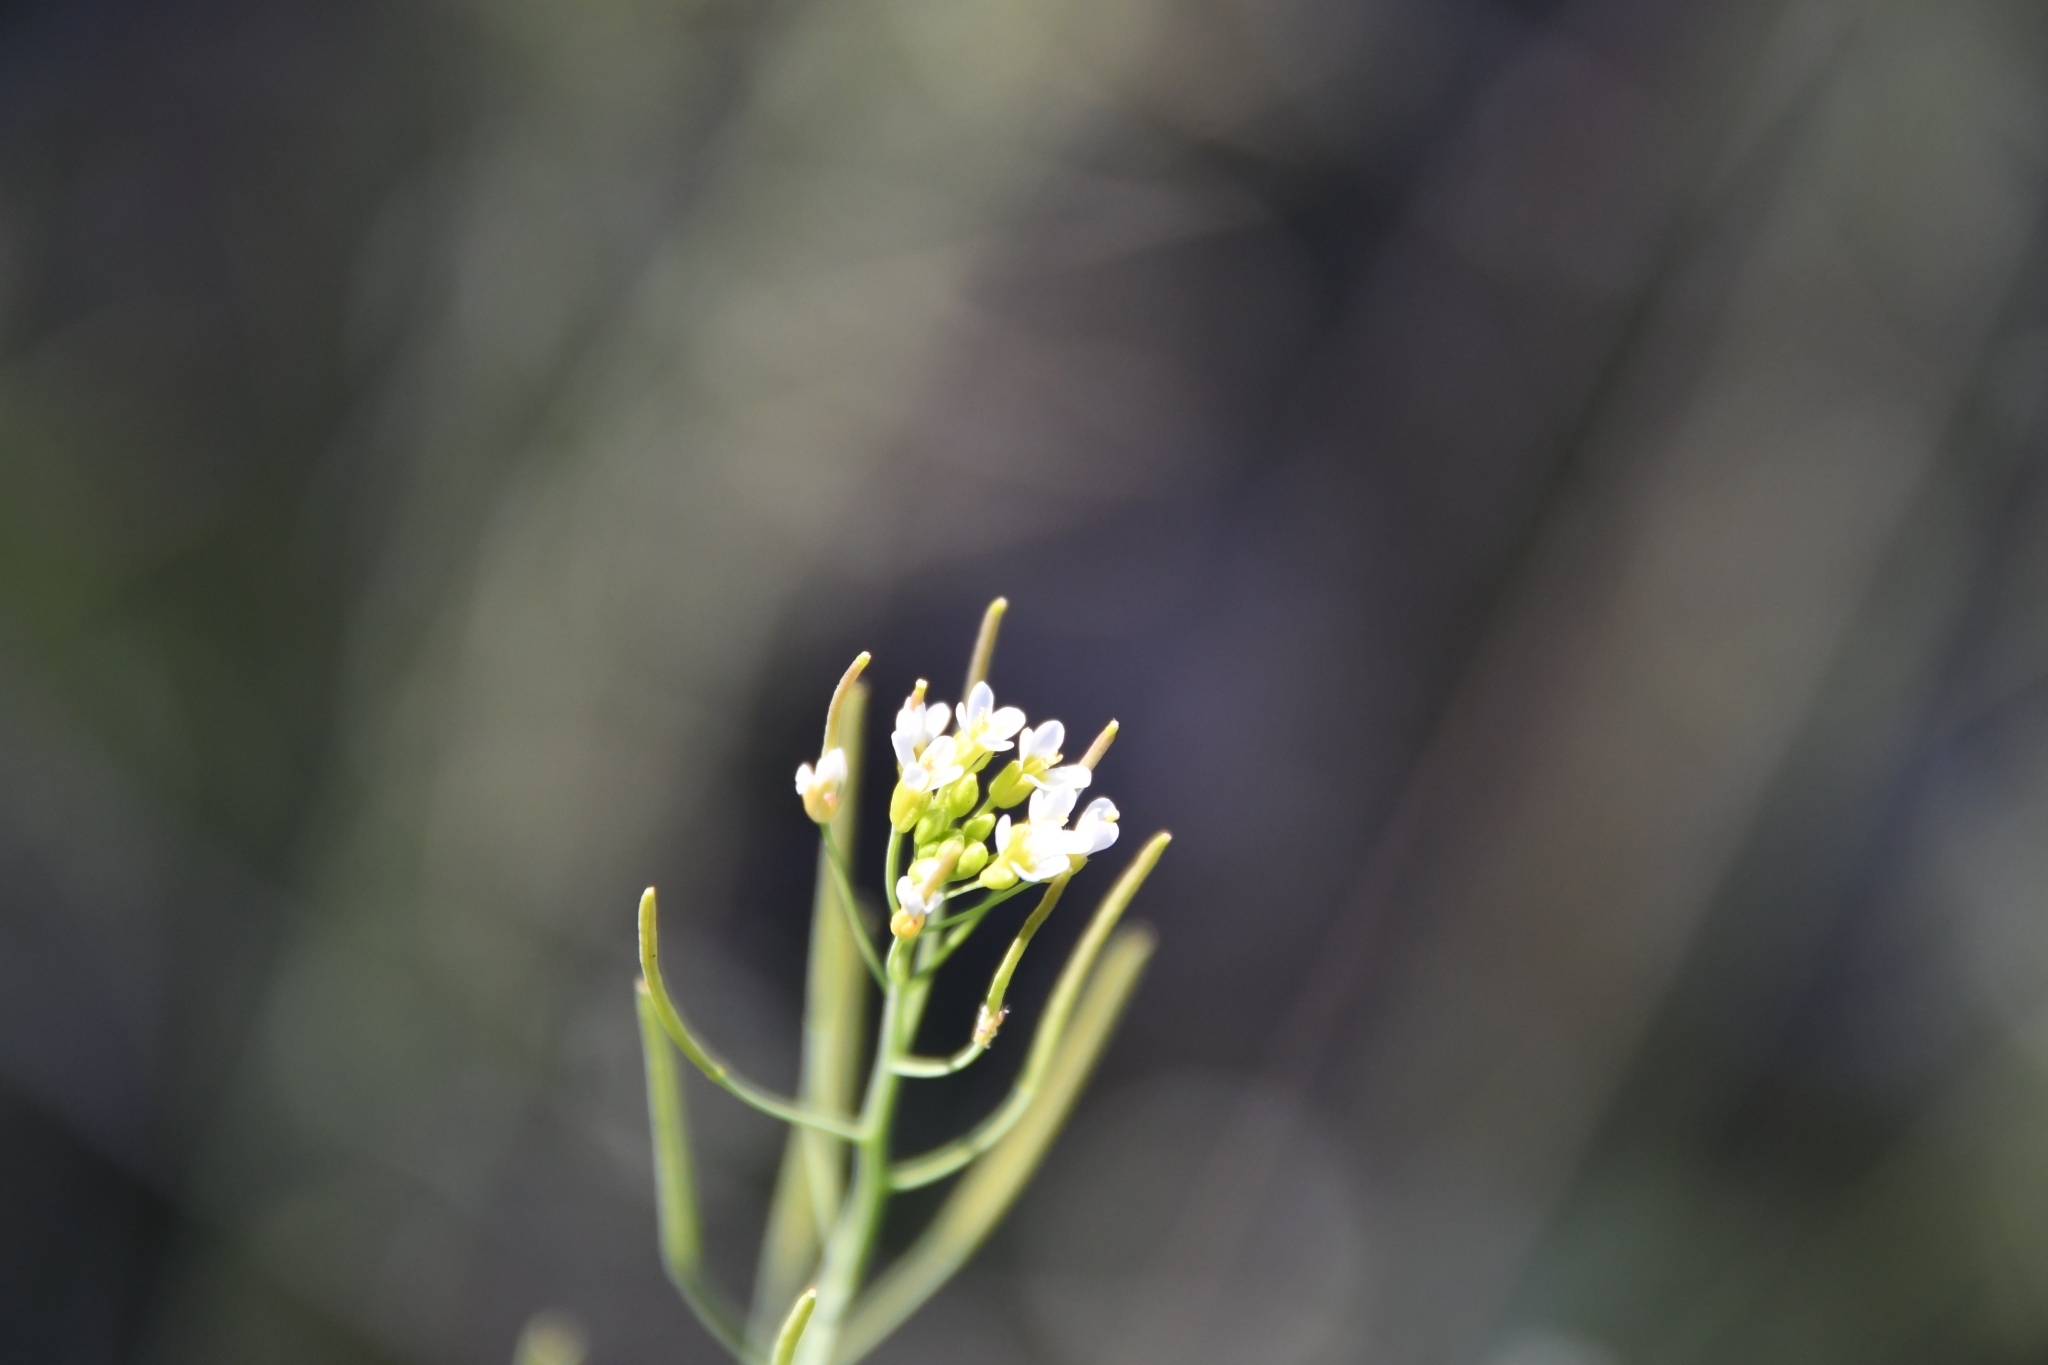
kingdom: Plantae
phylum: Tracheophyta
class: Magnoliopsida
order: Brassicales
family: Brassicaceae
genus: Arabidopsis
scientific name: Arabidopsis thaliana
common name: Thale cress
